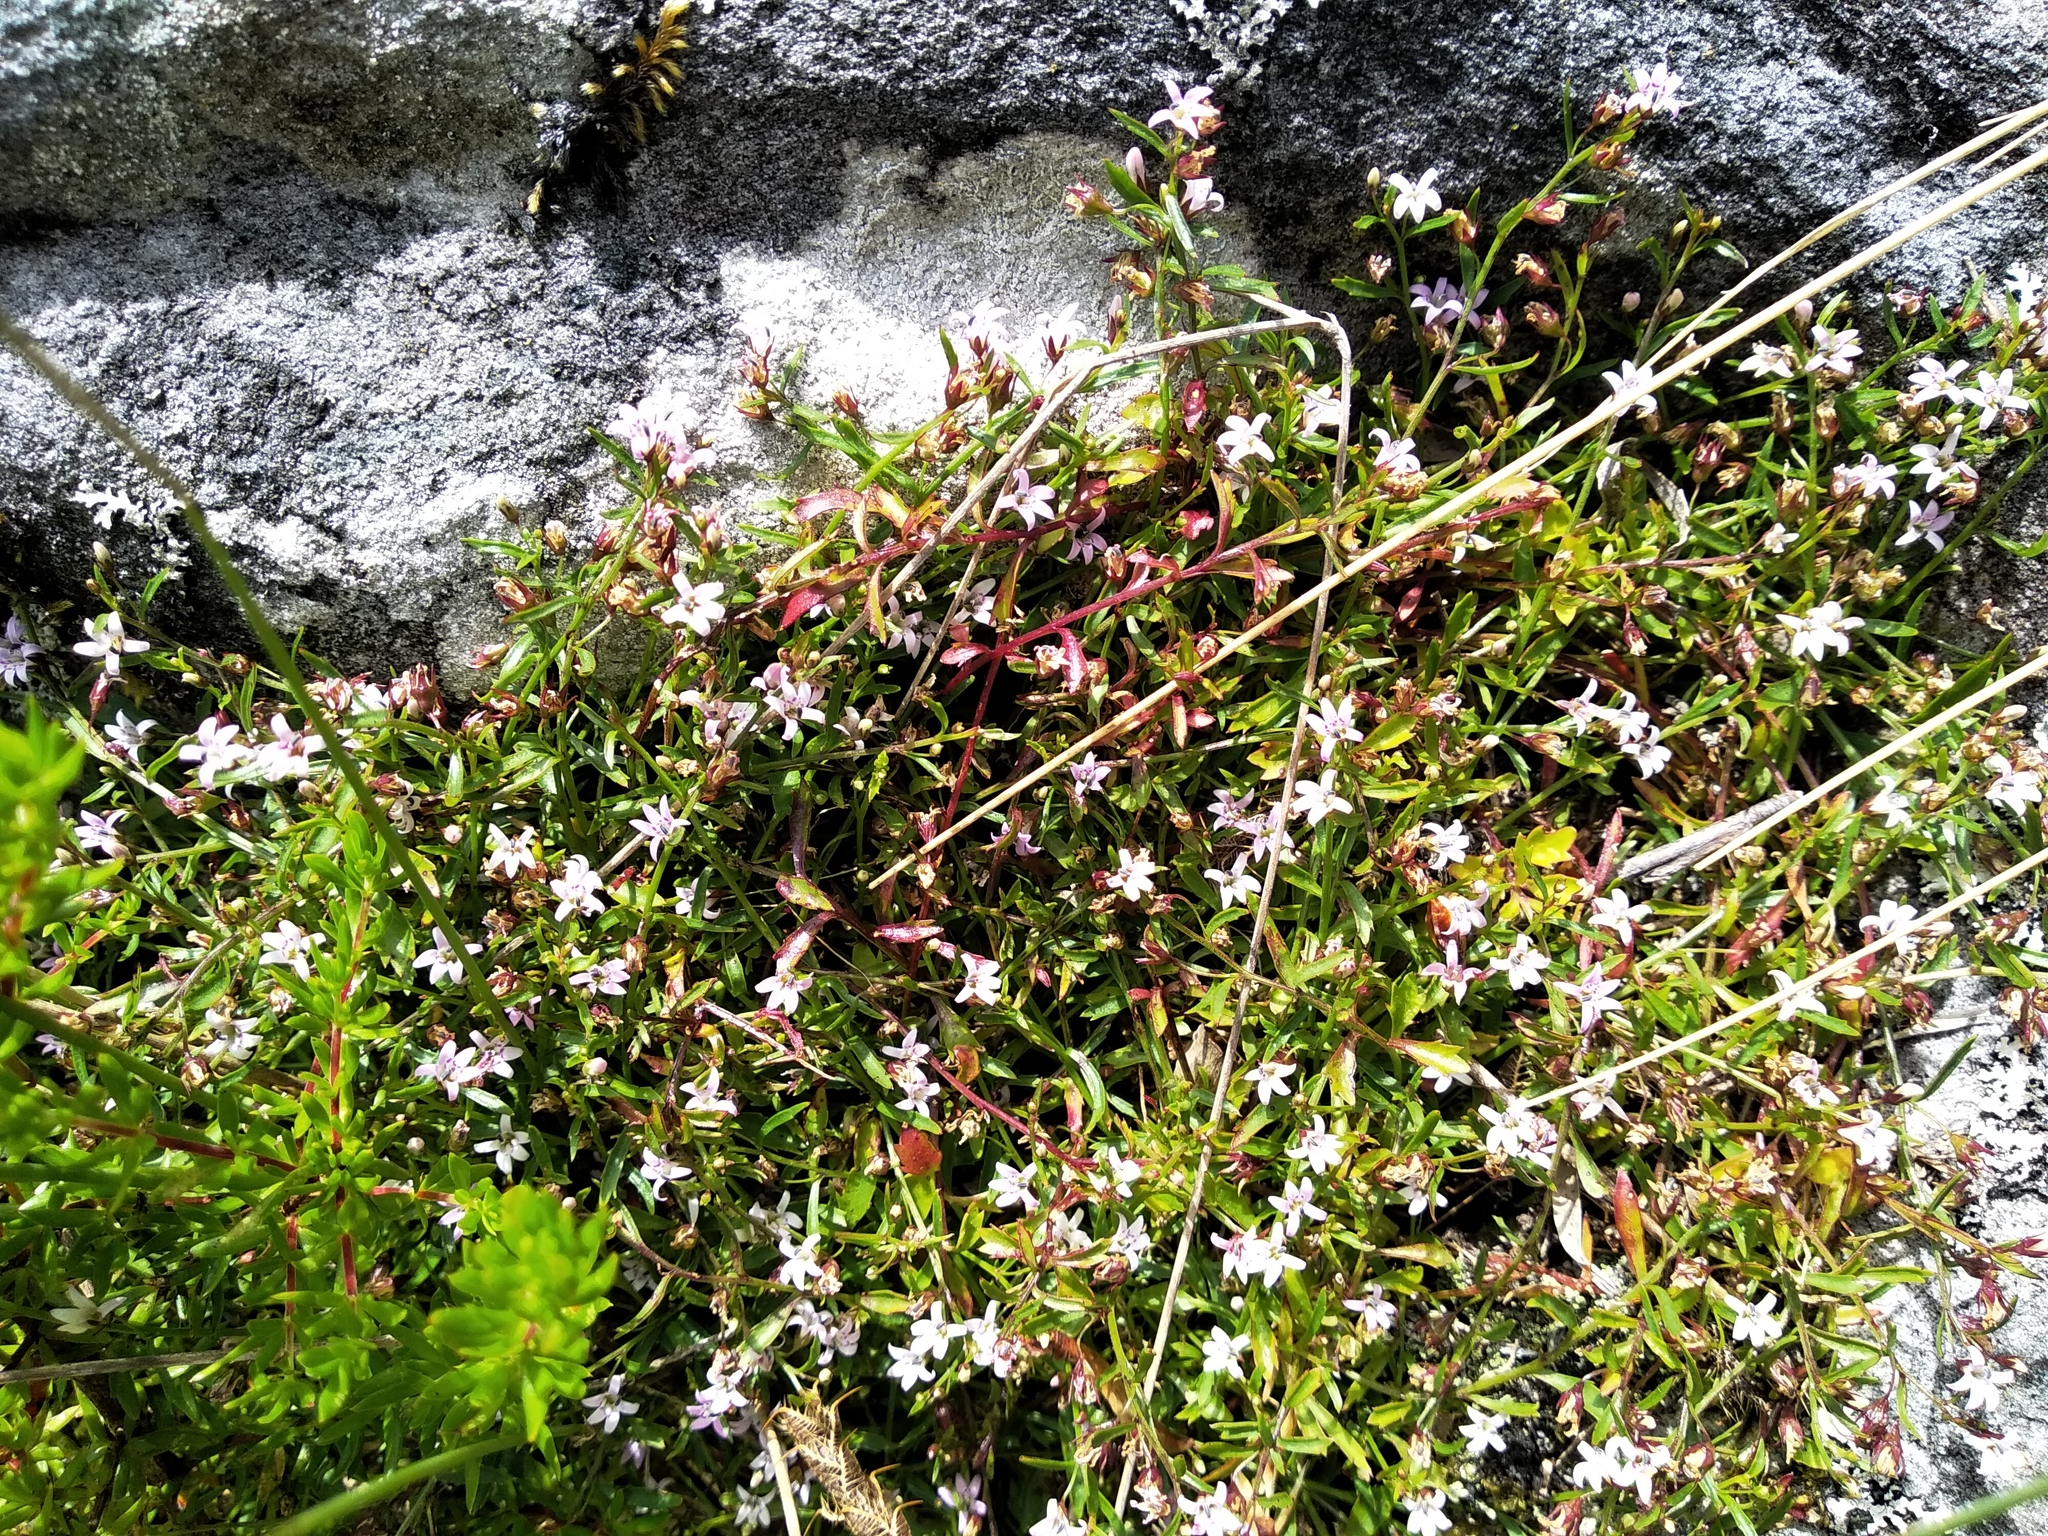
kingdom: Plantae
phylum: Tracheophyta
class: Magnoliopsida
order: Asterales
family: Campanulaceae
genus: Lobelia
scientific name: Lobelia eckloniana
